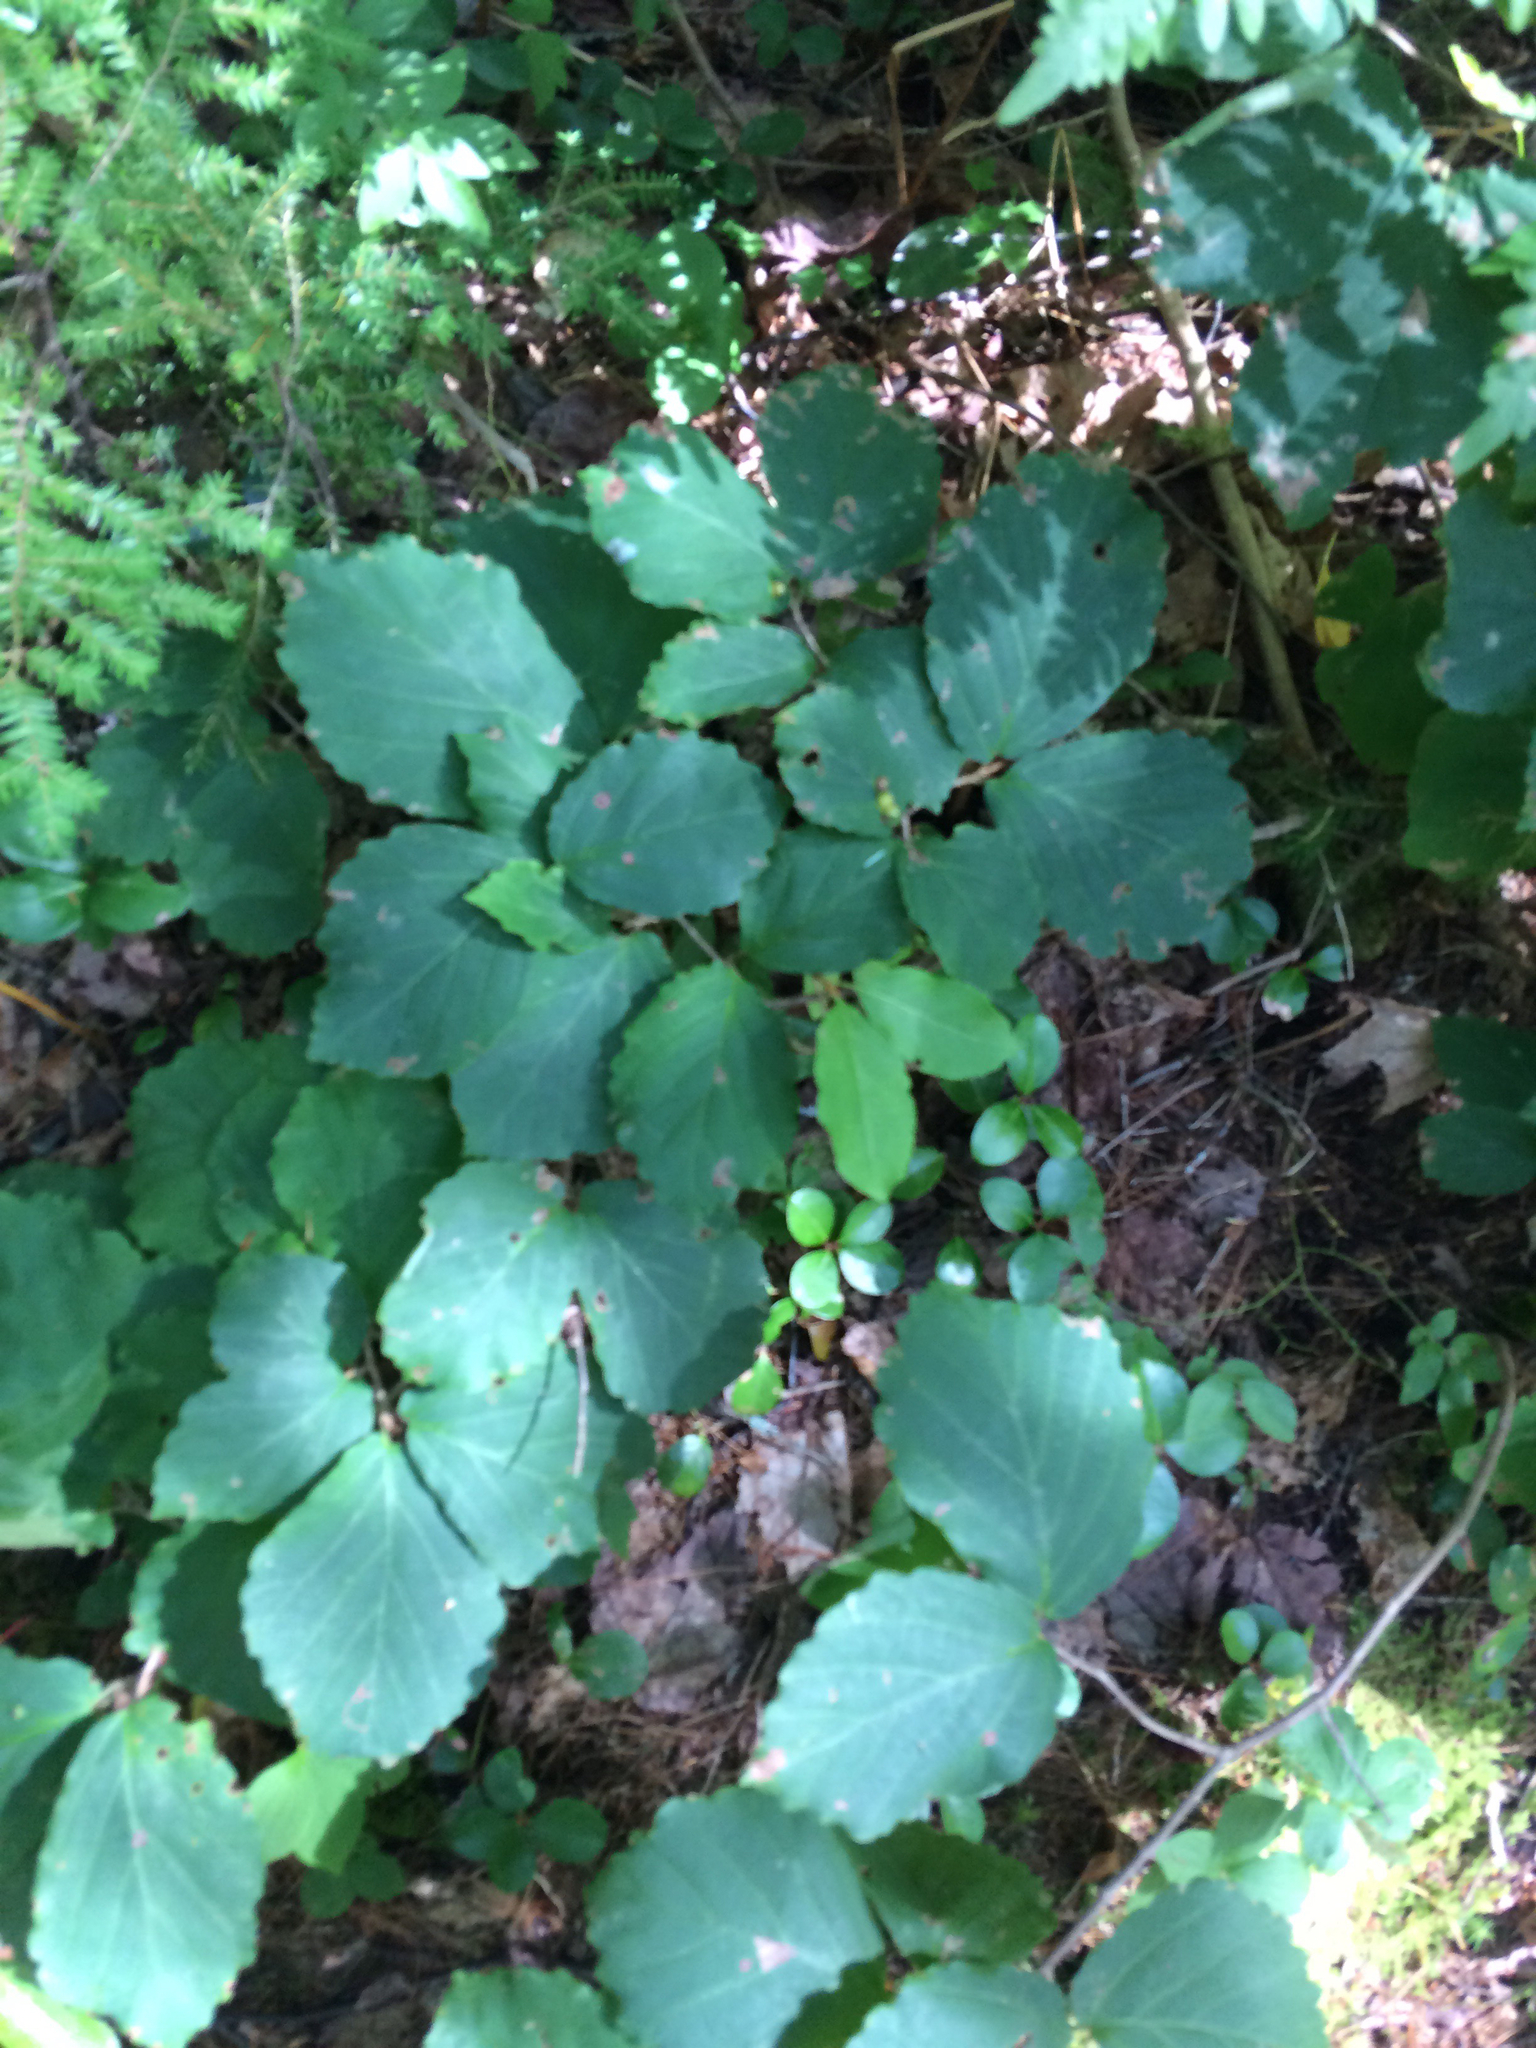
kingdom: Plantae
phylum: Tracheophyta
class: Magnoliopsida
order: Saxifragales
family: Hamamelidaceae
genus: Hamamelis
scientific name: Hamamelis virginiana
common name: Witch-hazel
